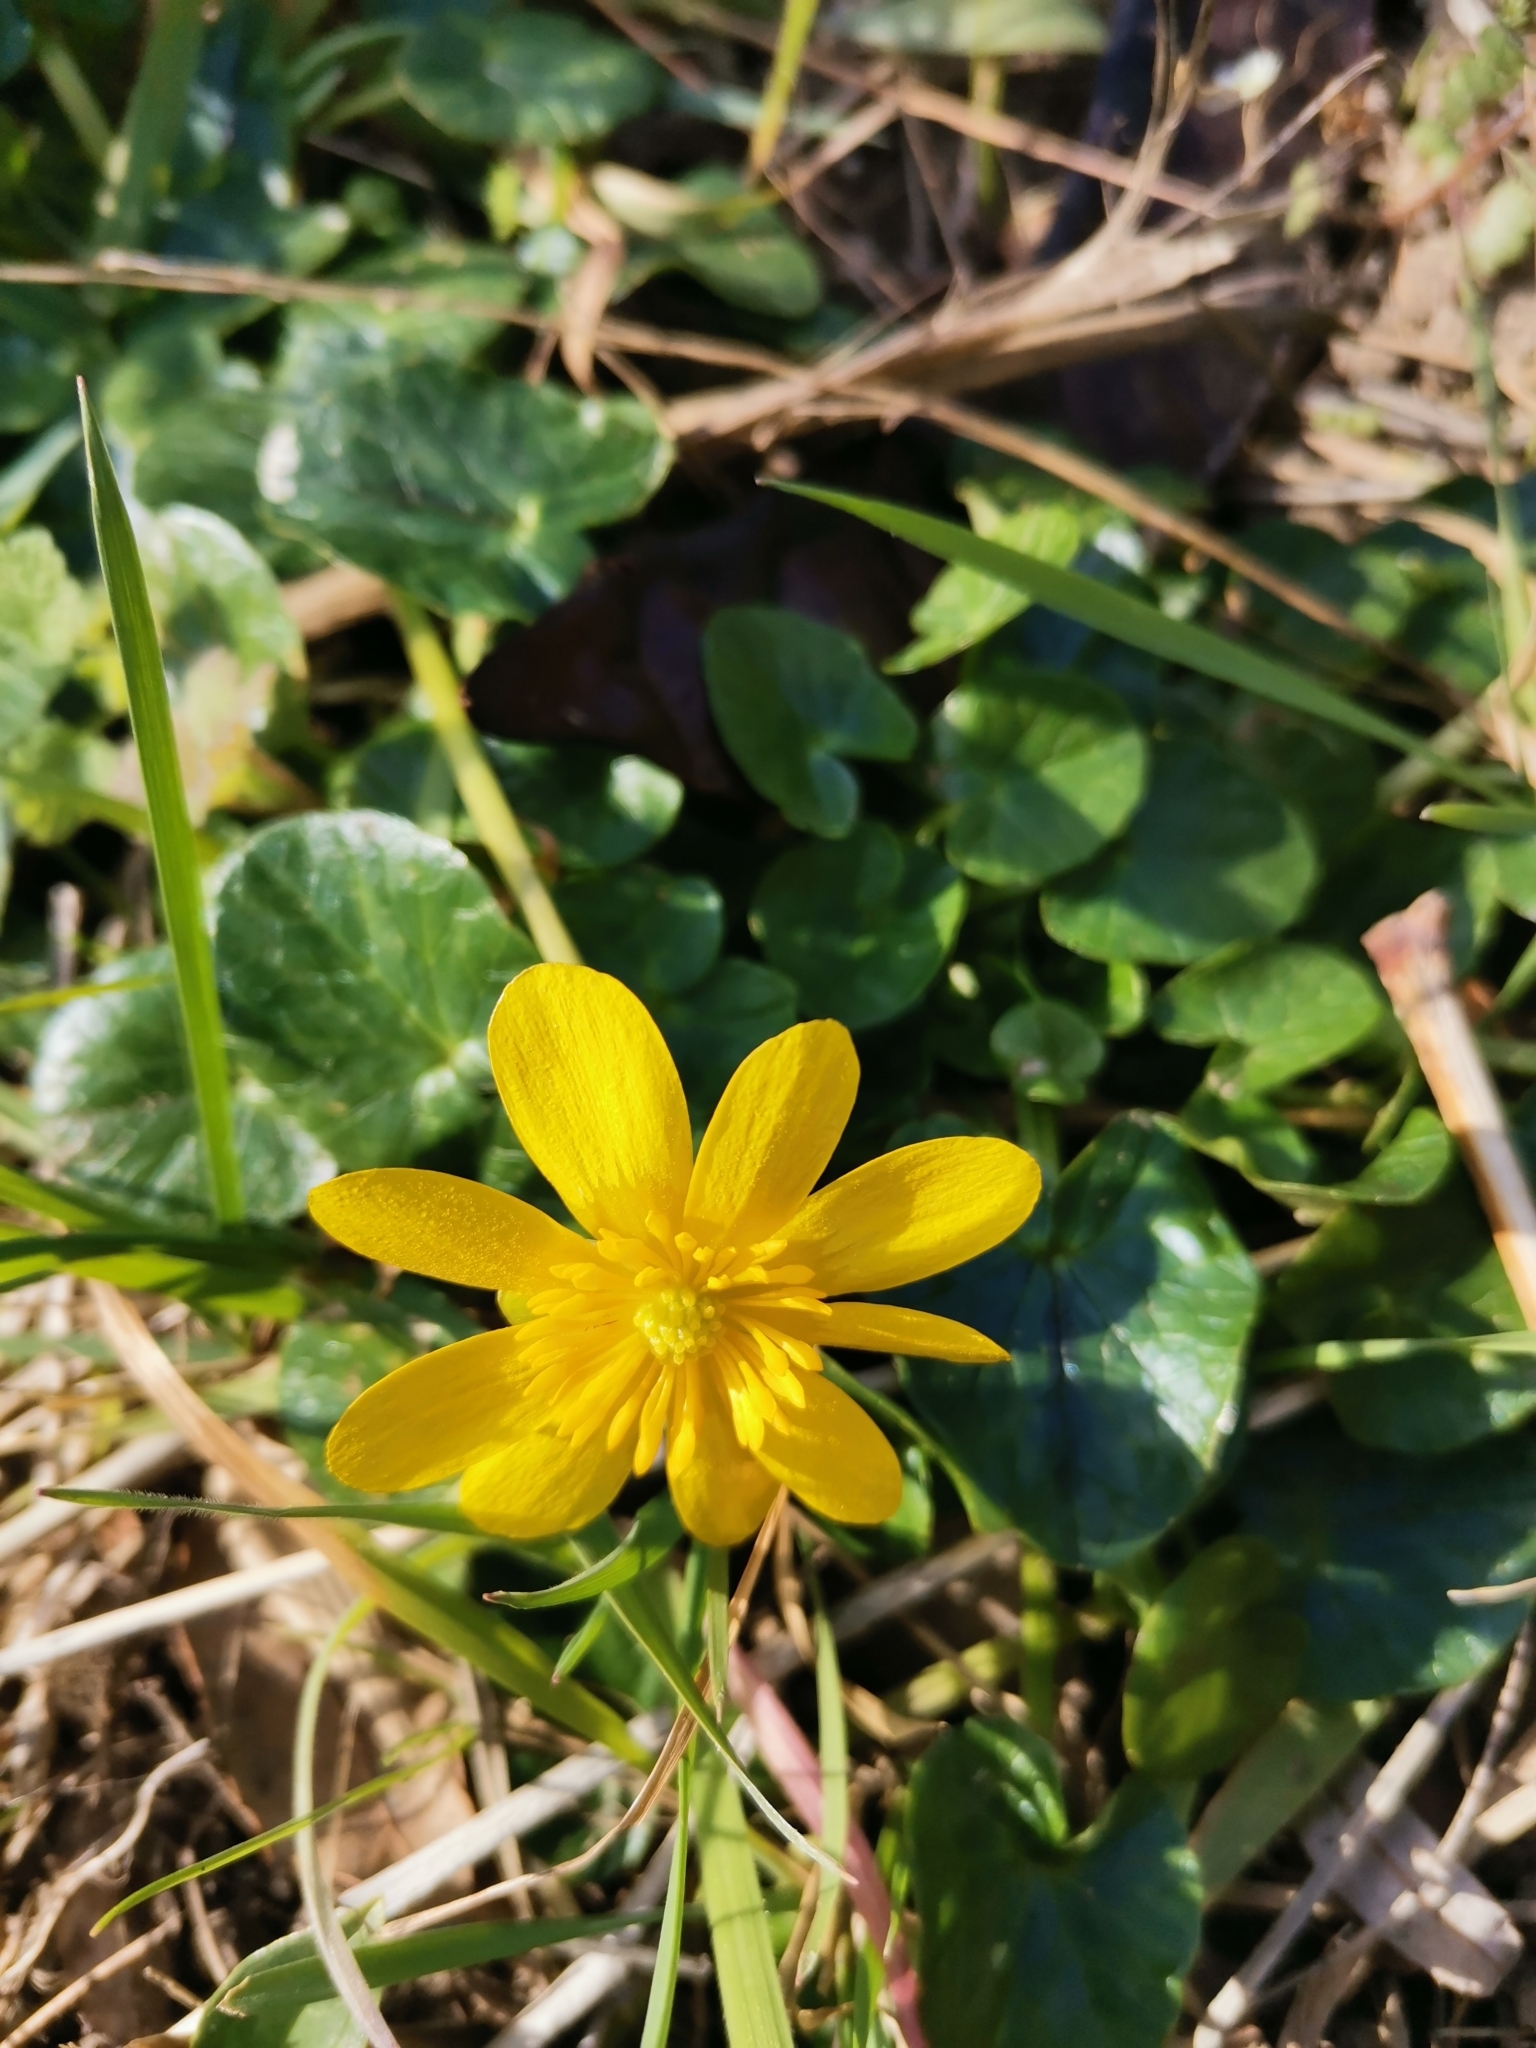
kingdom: Plantae
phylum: Tracheophyta
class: Magnoliopsida
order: Ranunculales
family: Ranunculaceae
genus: Ficaria
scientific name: Ficaria verna
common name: Lesser celandine
